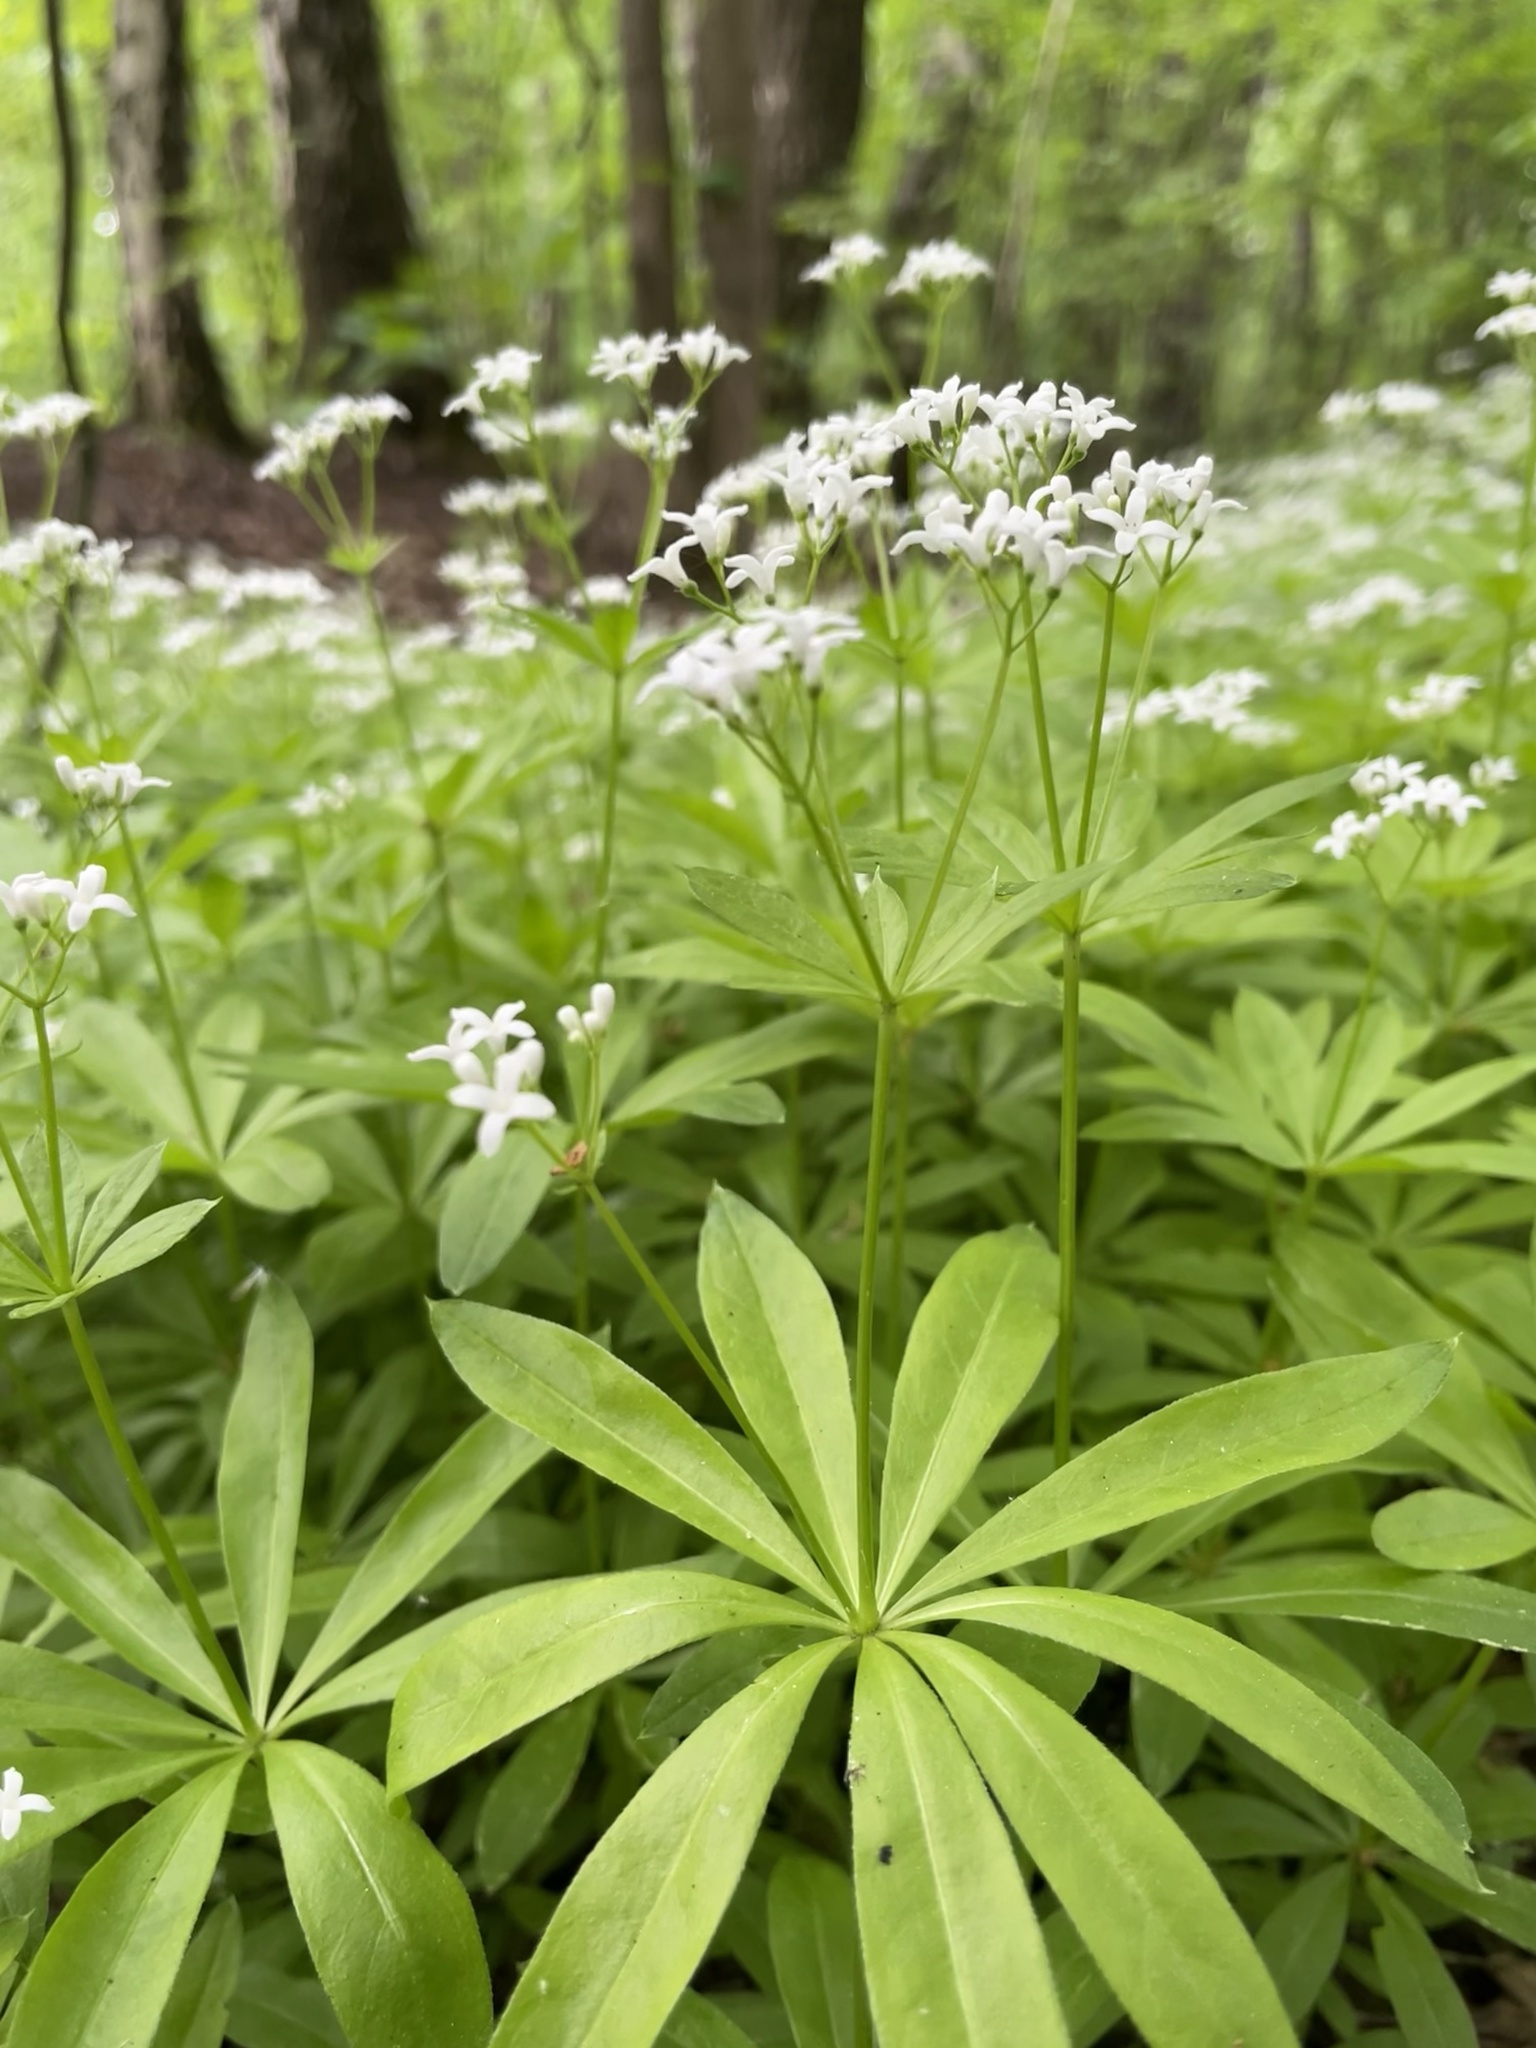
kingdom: Plantae
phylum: Tracheophyta
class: Magnoliopsida
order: Gentianales
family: Rubiaceae
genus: Galium
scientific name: Galium odoratum
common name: Sweet woodruff
